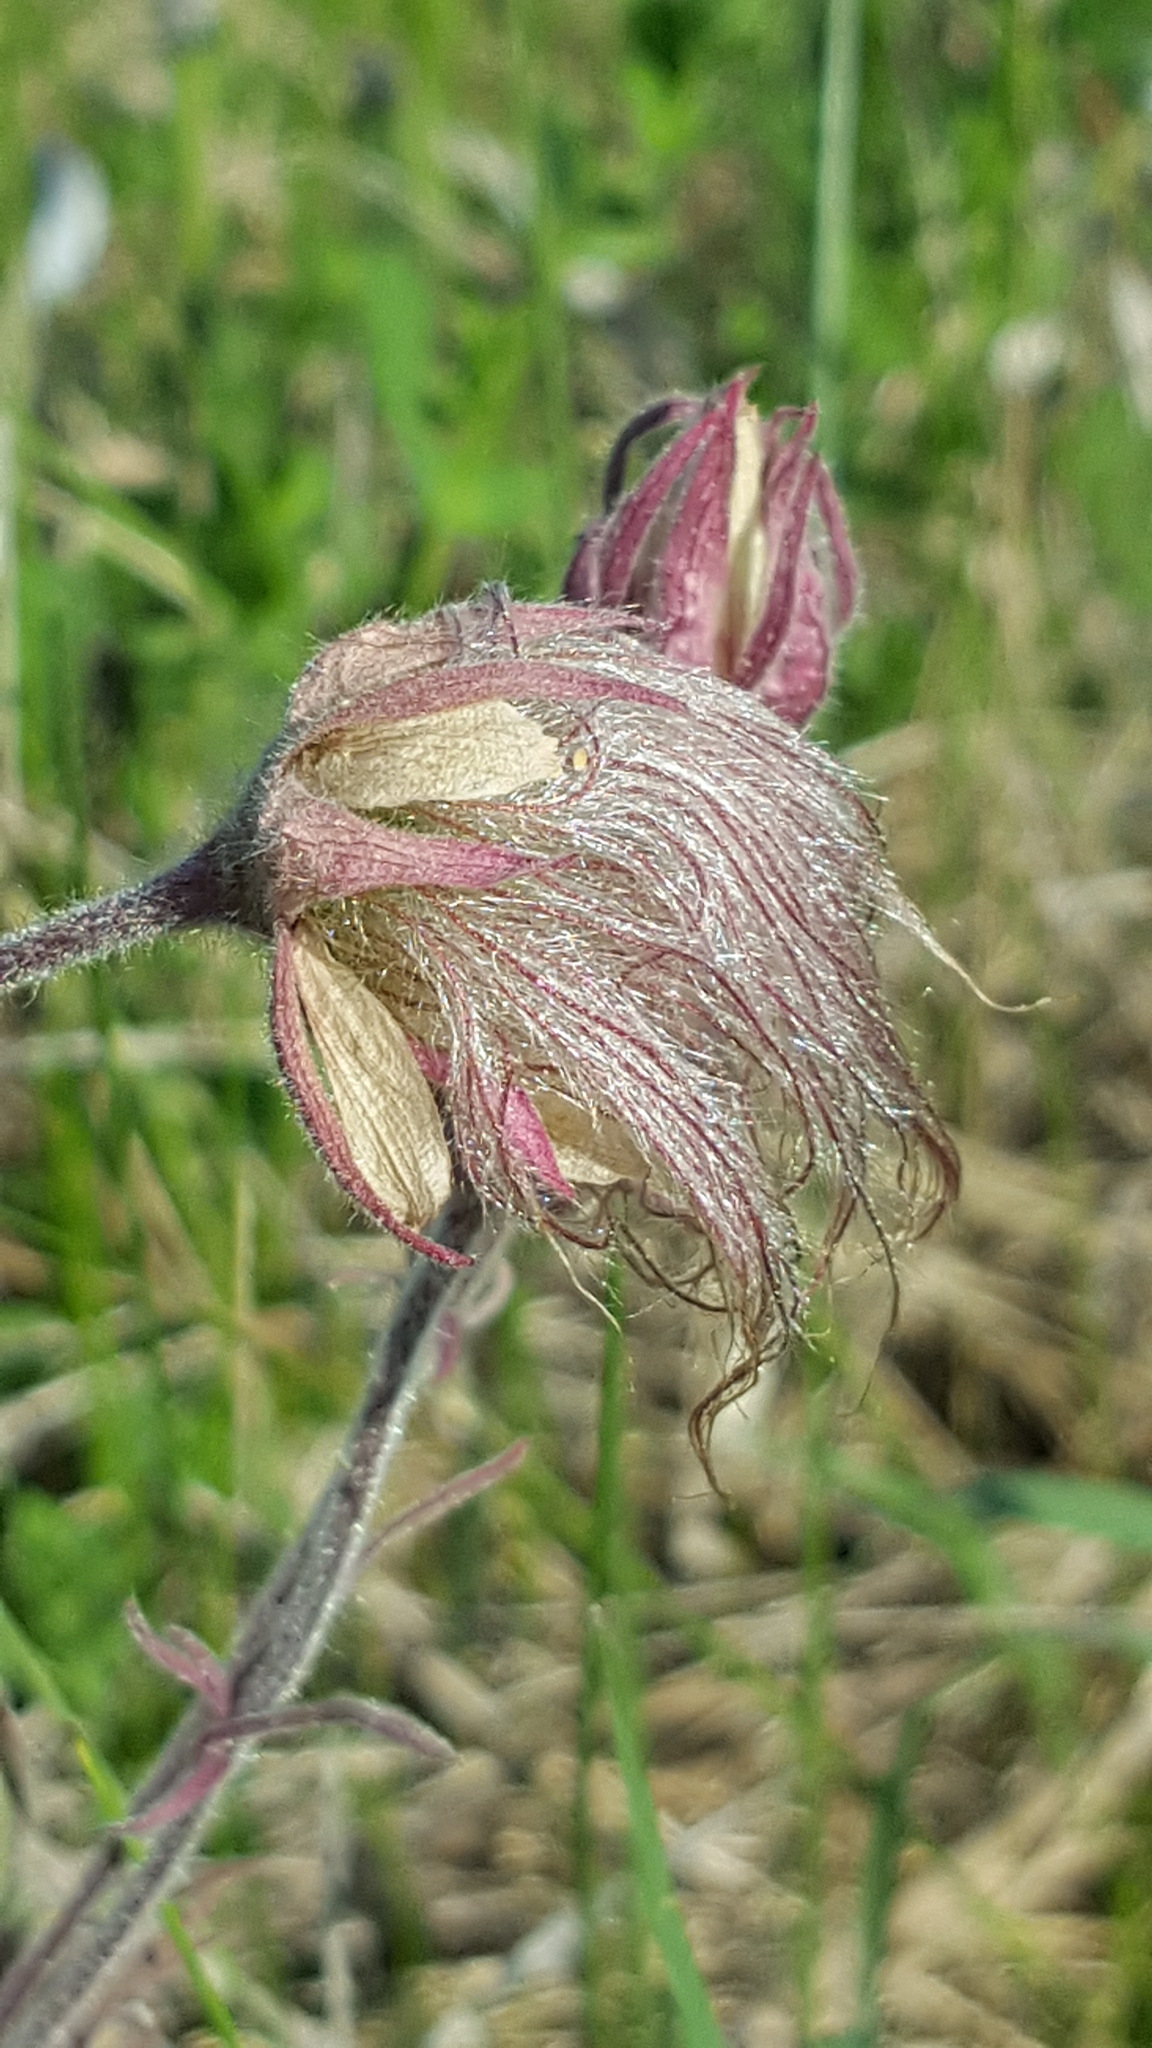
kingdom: Plantae
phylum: Tracheophyta
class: Magnoliopsida
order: Rosales
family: Rosaceae
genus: Geum
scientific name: Geum triflorum
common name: Old man's whiskers
